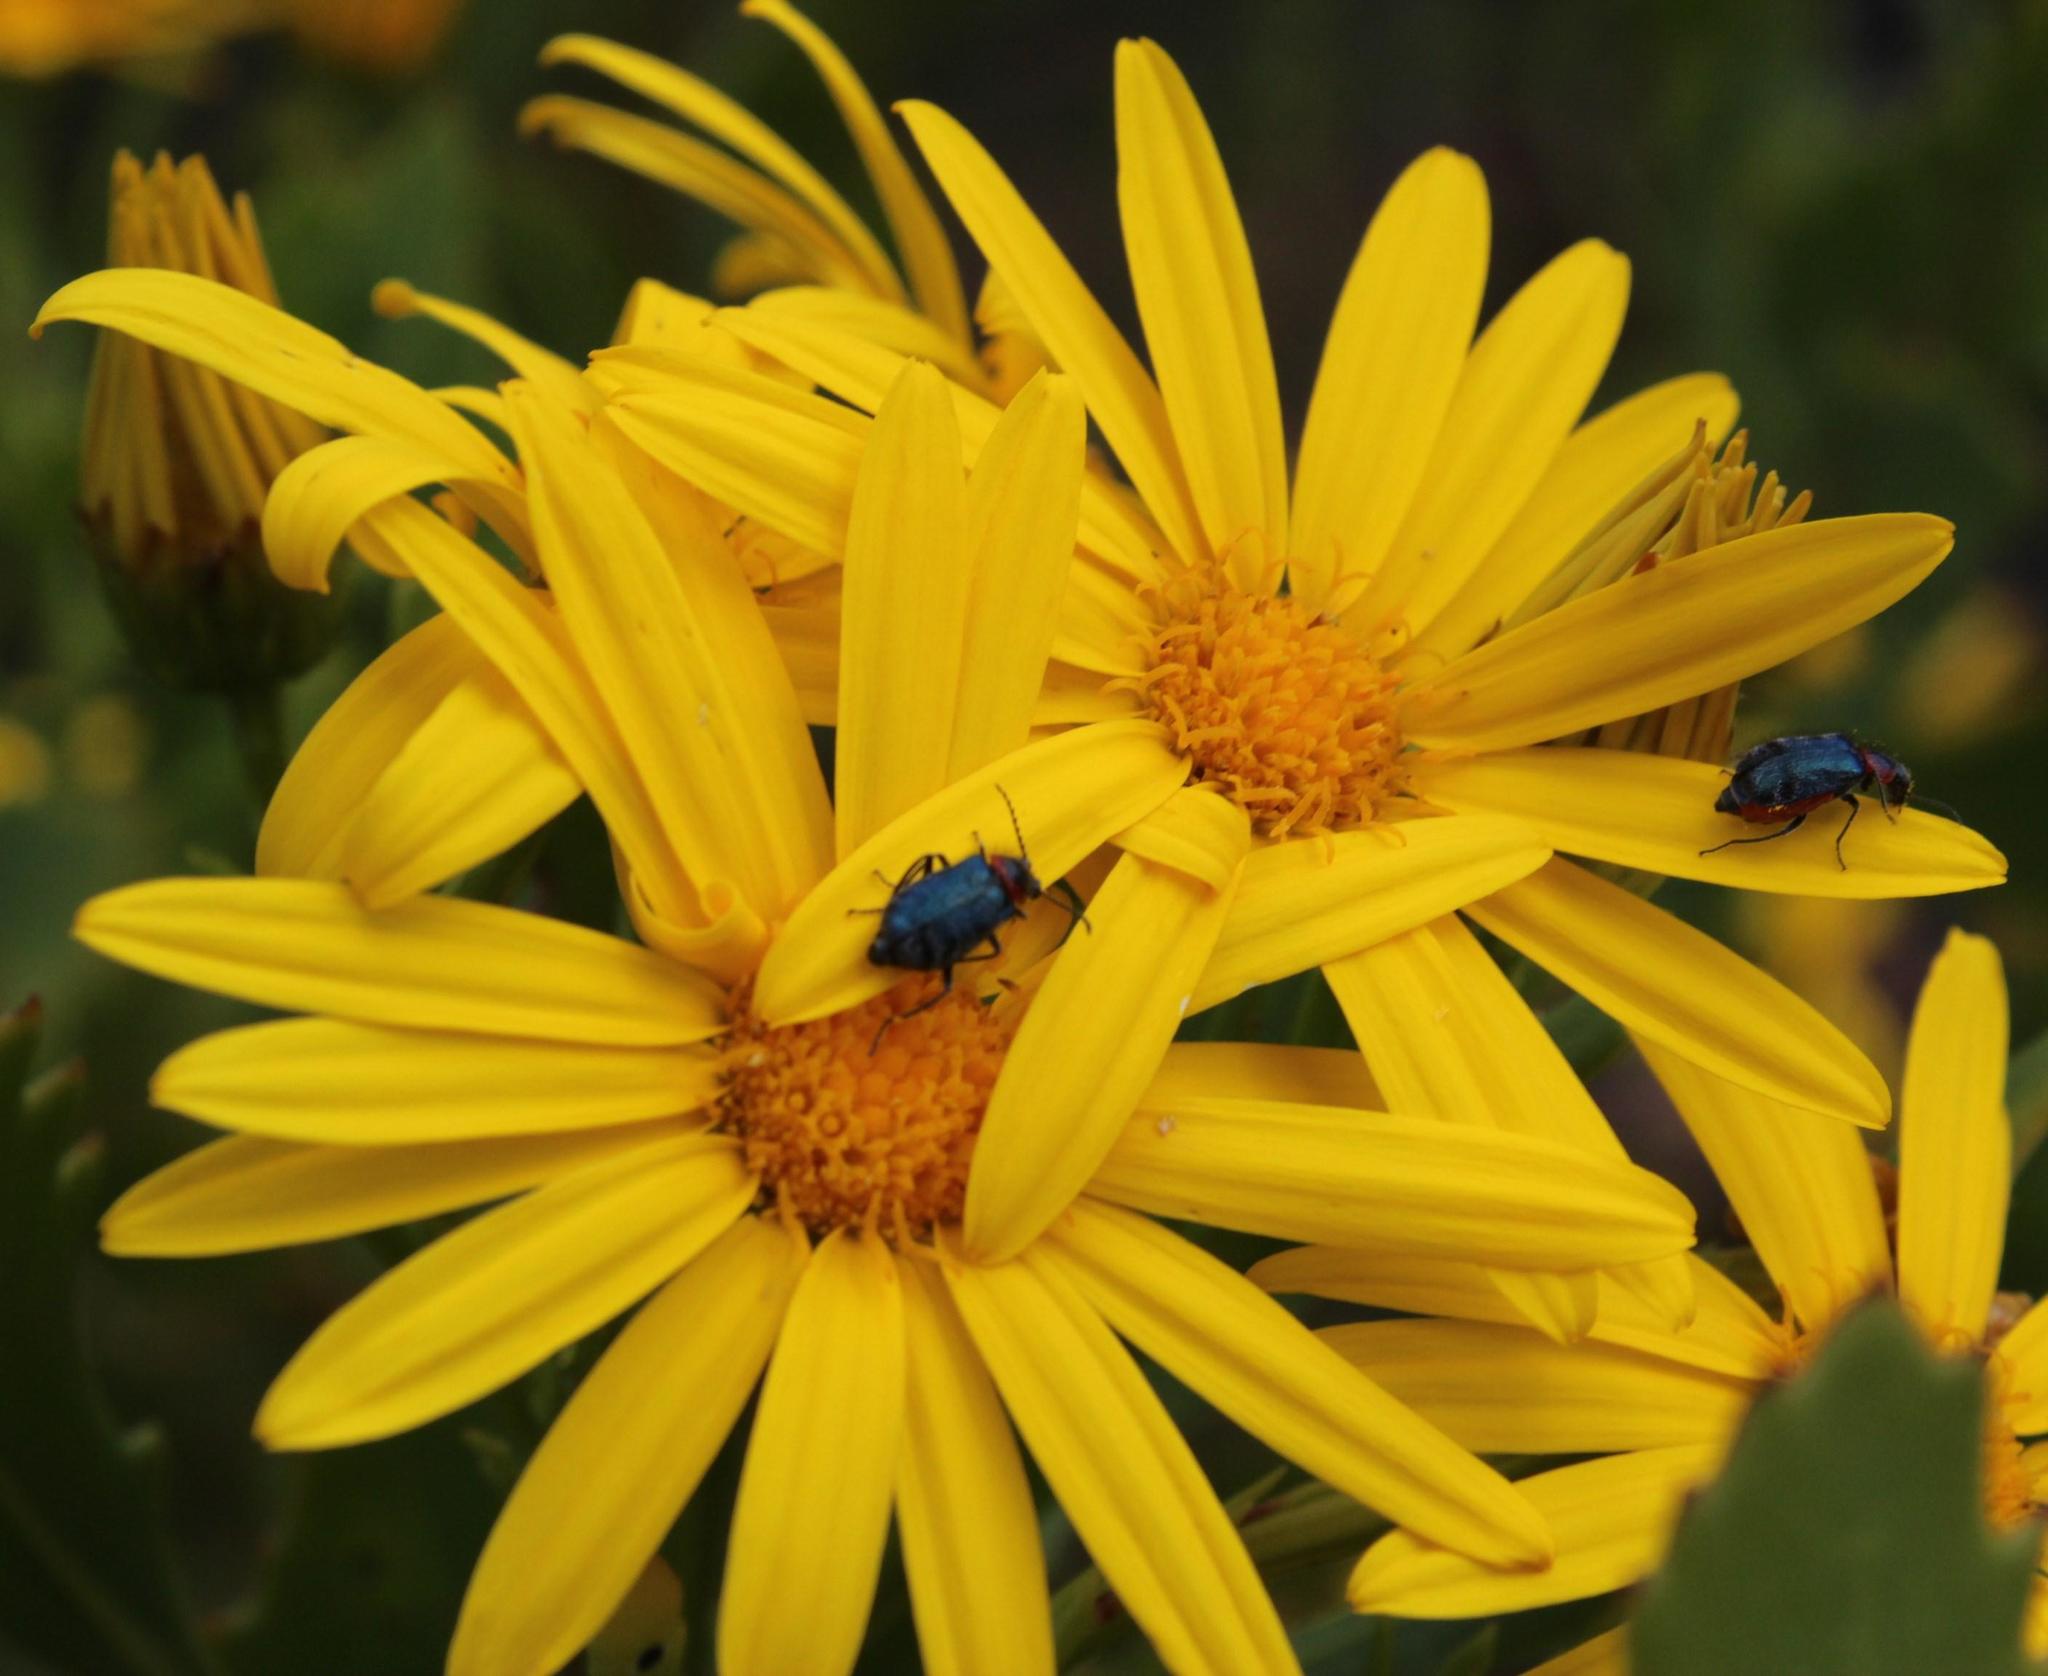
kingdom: Plantae
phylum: Tracheophyta
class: Magnoliopsida
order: Asterales
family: Asteraceae
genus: Osteospermum
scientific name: Osteospermum moniliferum
